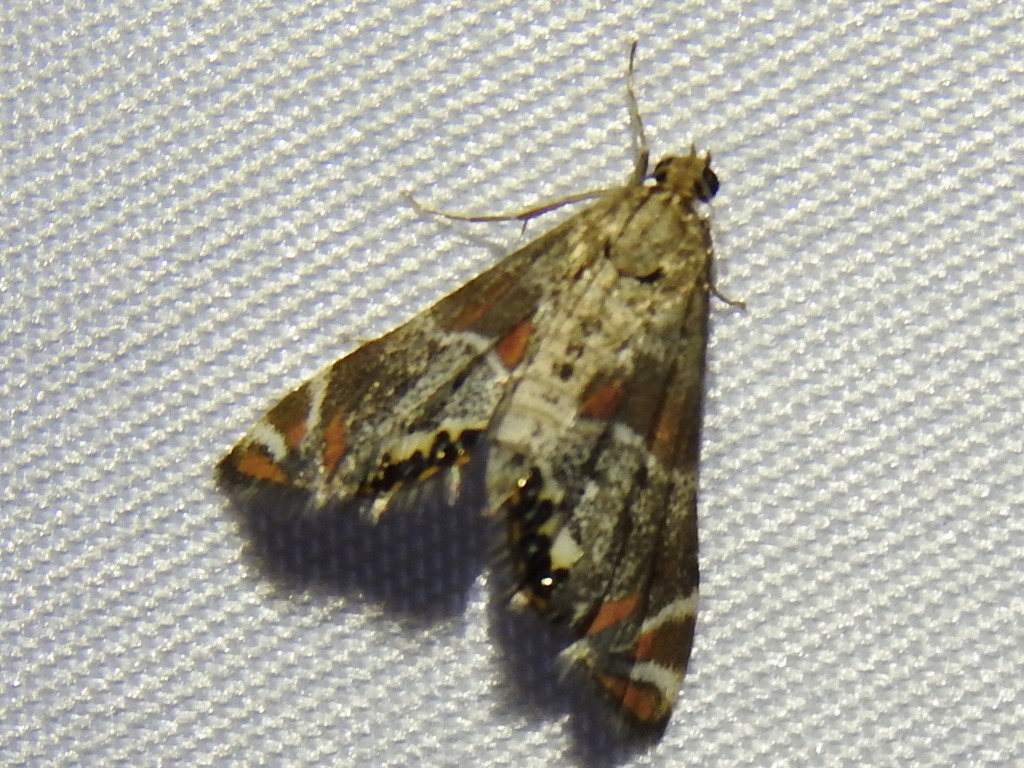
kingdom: Animalia
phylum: Arthropoda
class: Insecta
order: Lepidoptera
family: Crambidae
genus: Petrophila
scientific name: Petrophila jaliscalis
